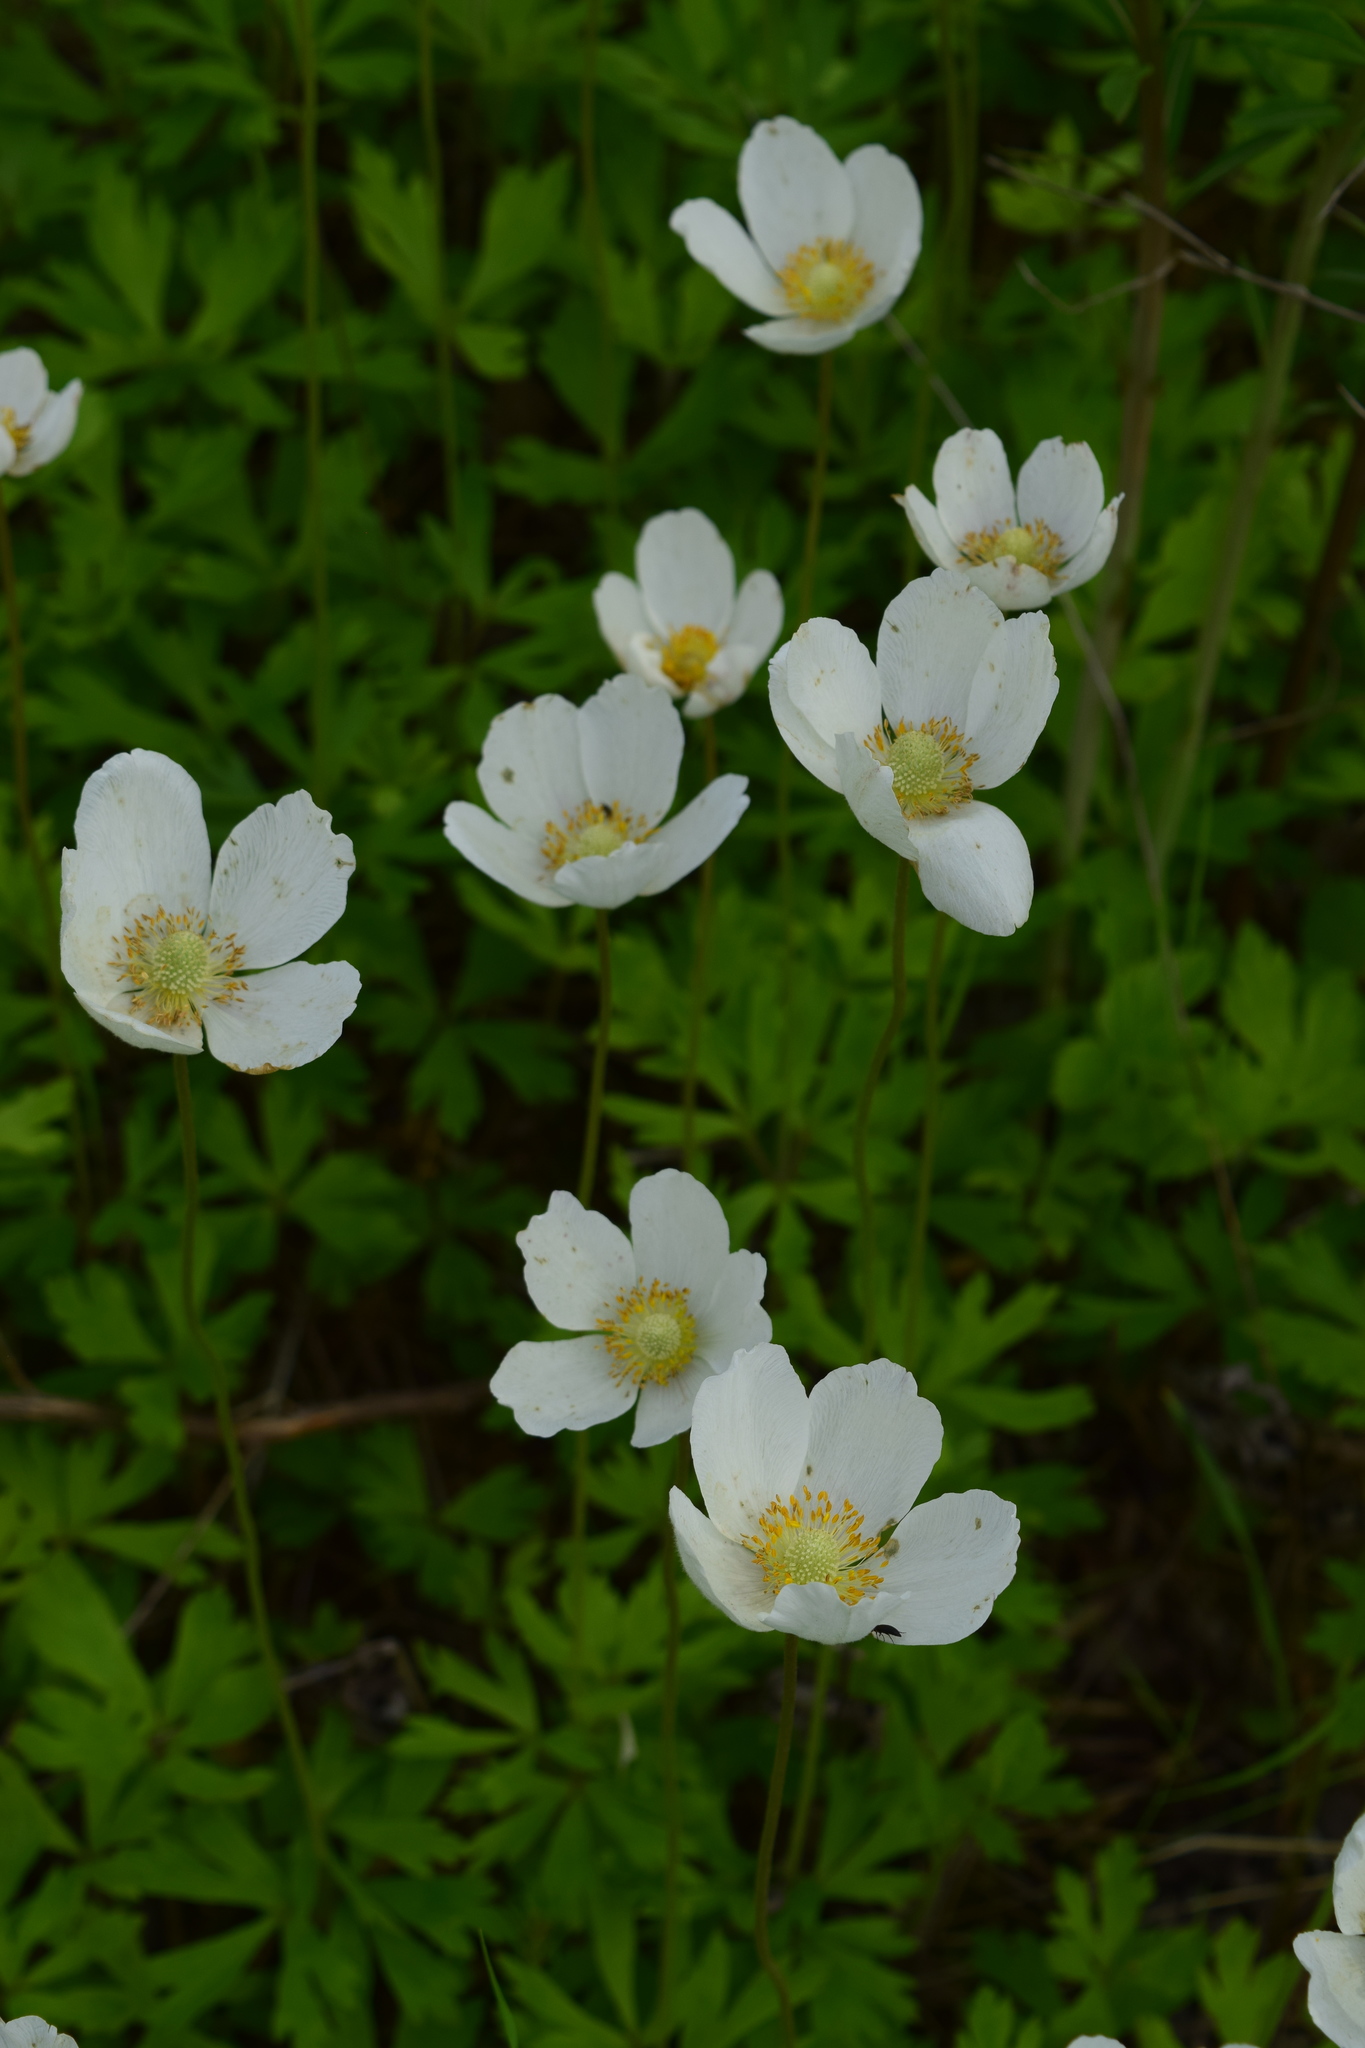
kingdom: Plantae
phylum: Tracheophyta
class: Magnoliopsida
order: Ranunculales
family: Ranunculaceae
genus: Anemone
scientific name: Anemone sylvestris
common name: Snowdrop anemone
